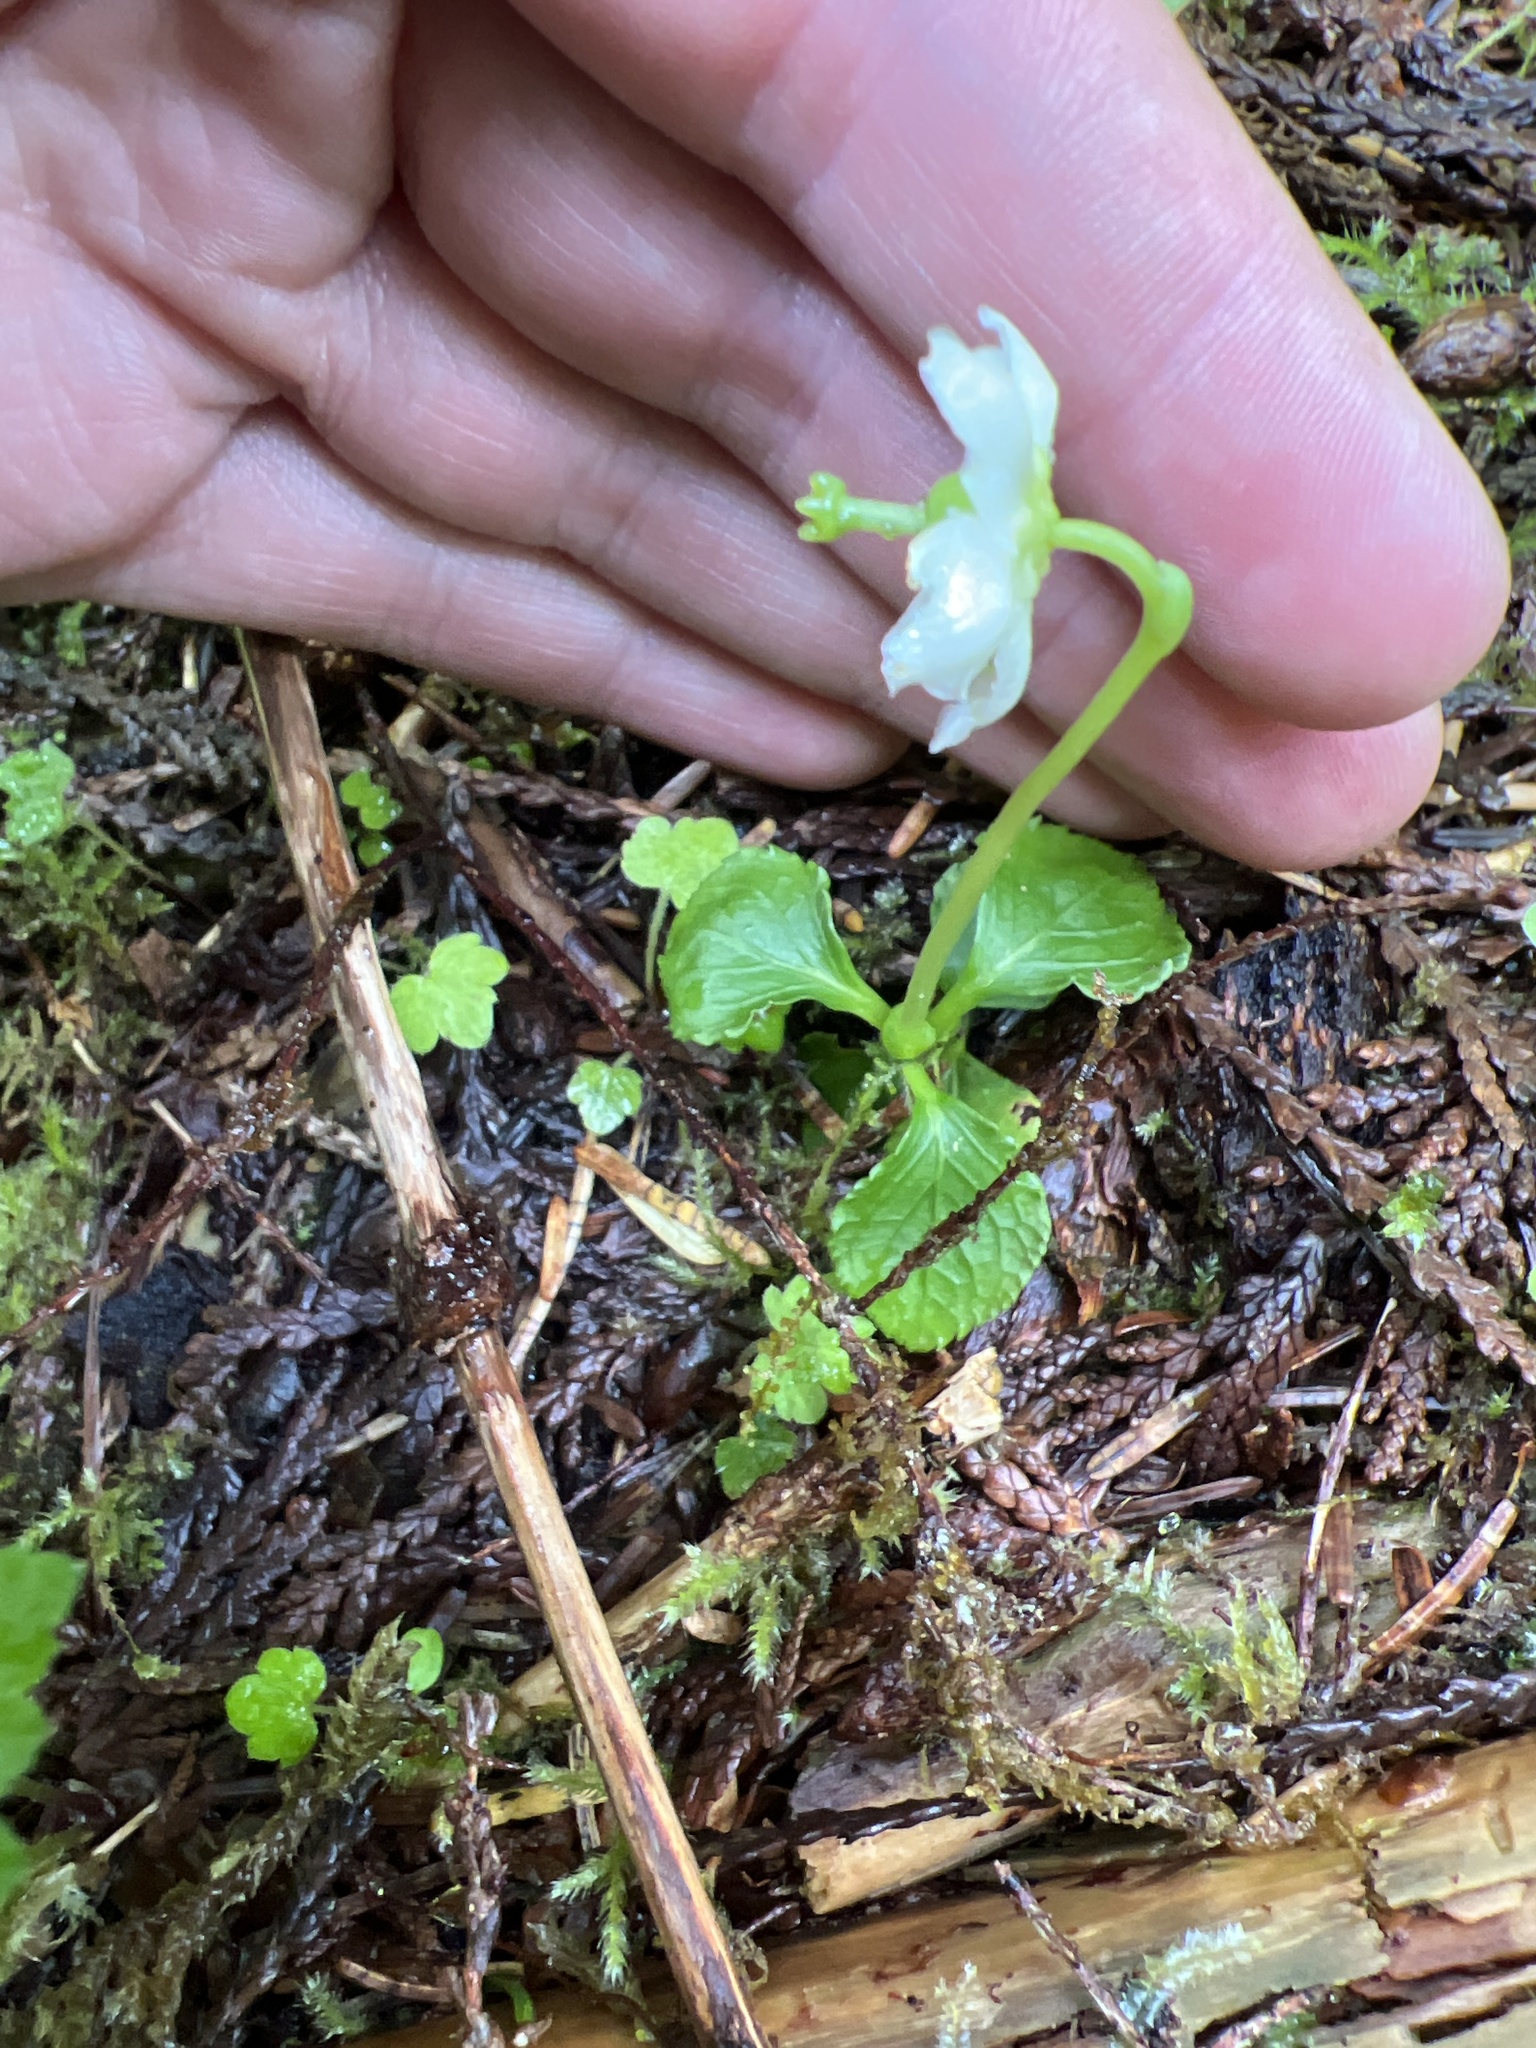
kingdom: Plantae
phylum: Tracheophyta
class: Magnoliopsida
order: Ericales
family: Ericaceae
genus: Moneses
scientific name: Moneses uniflora
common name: One-flowered wintergreen
